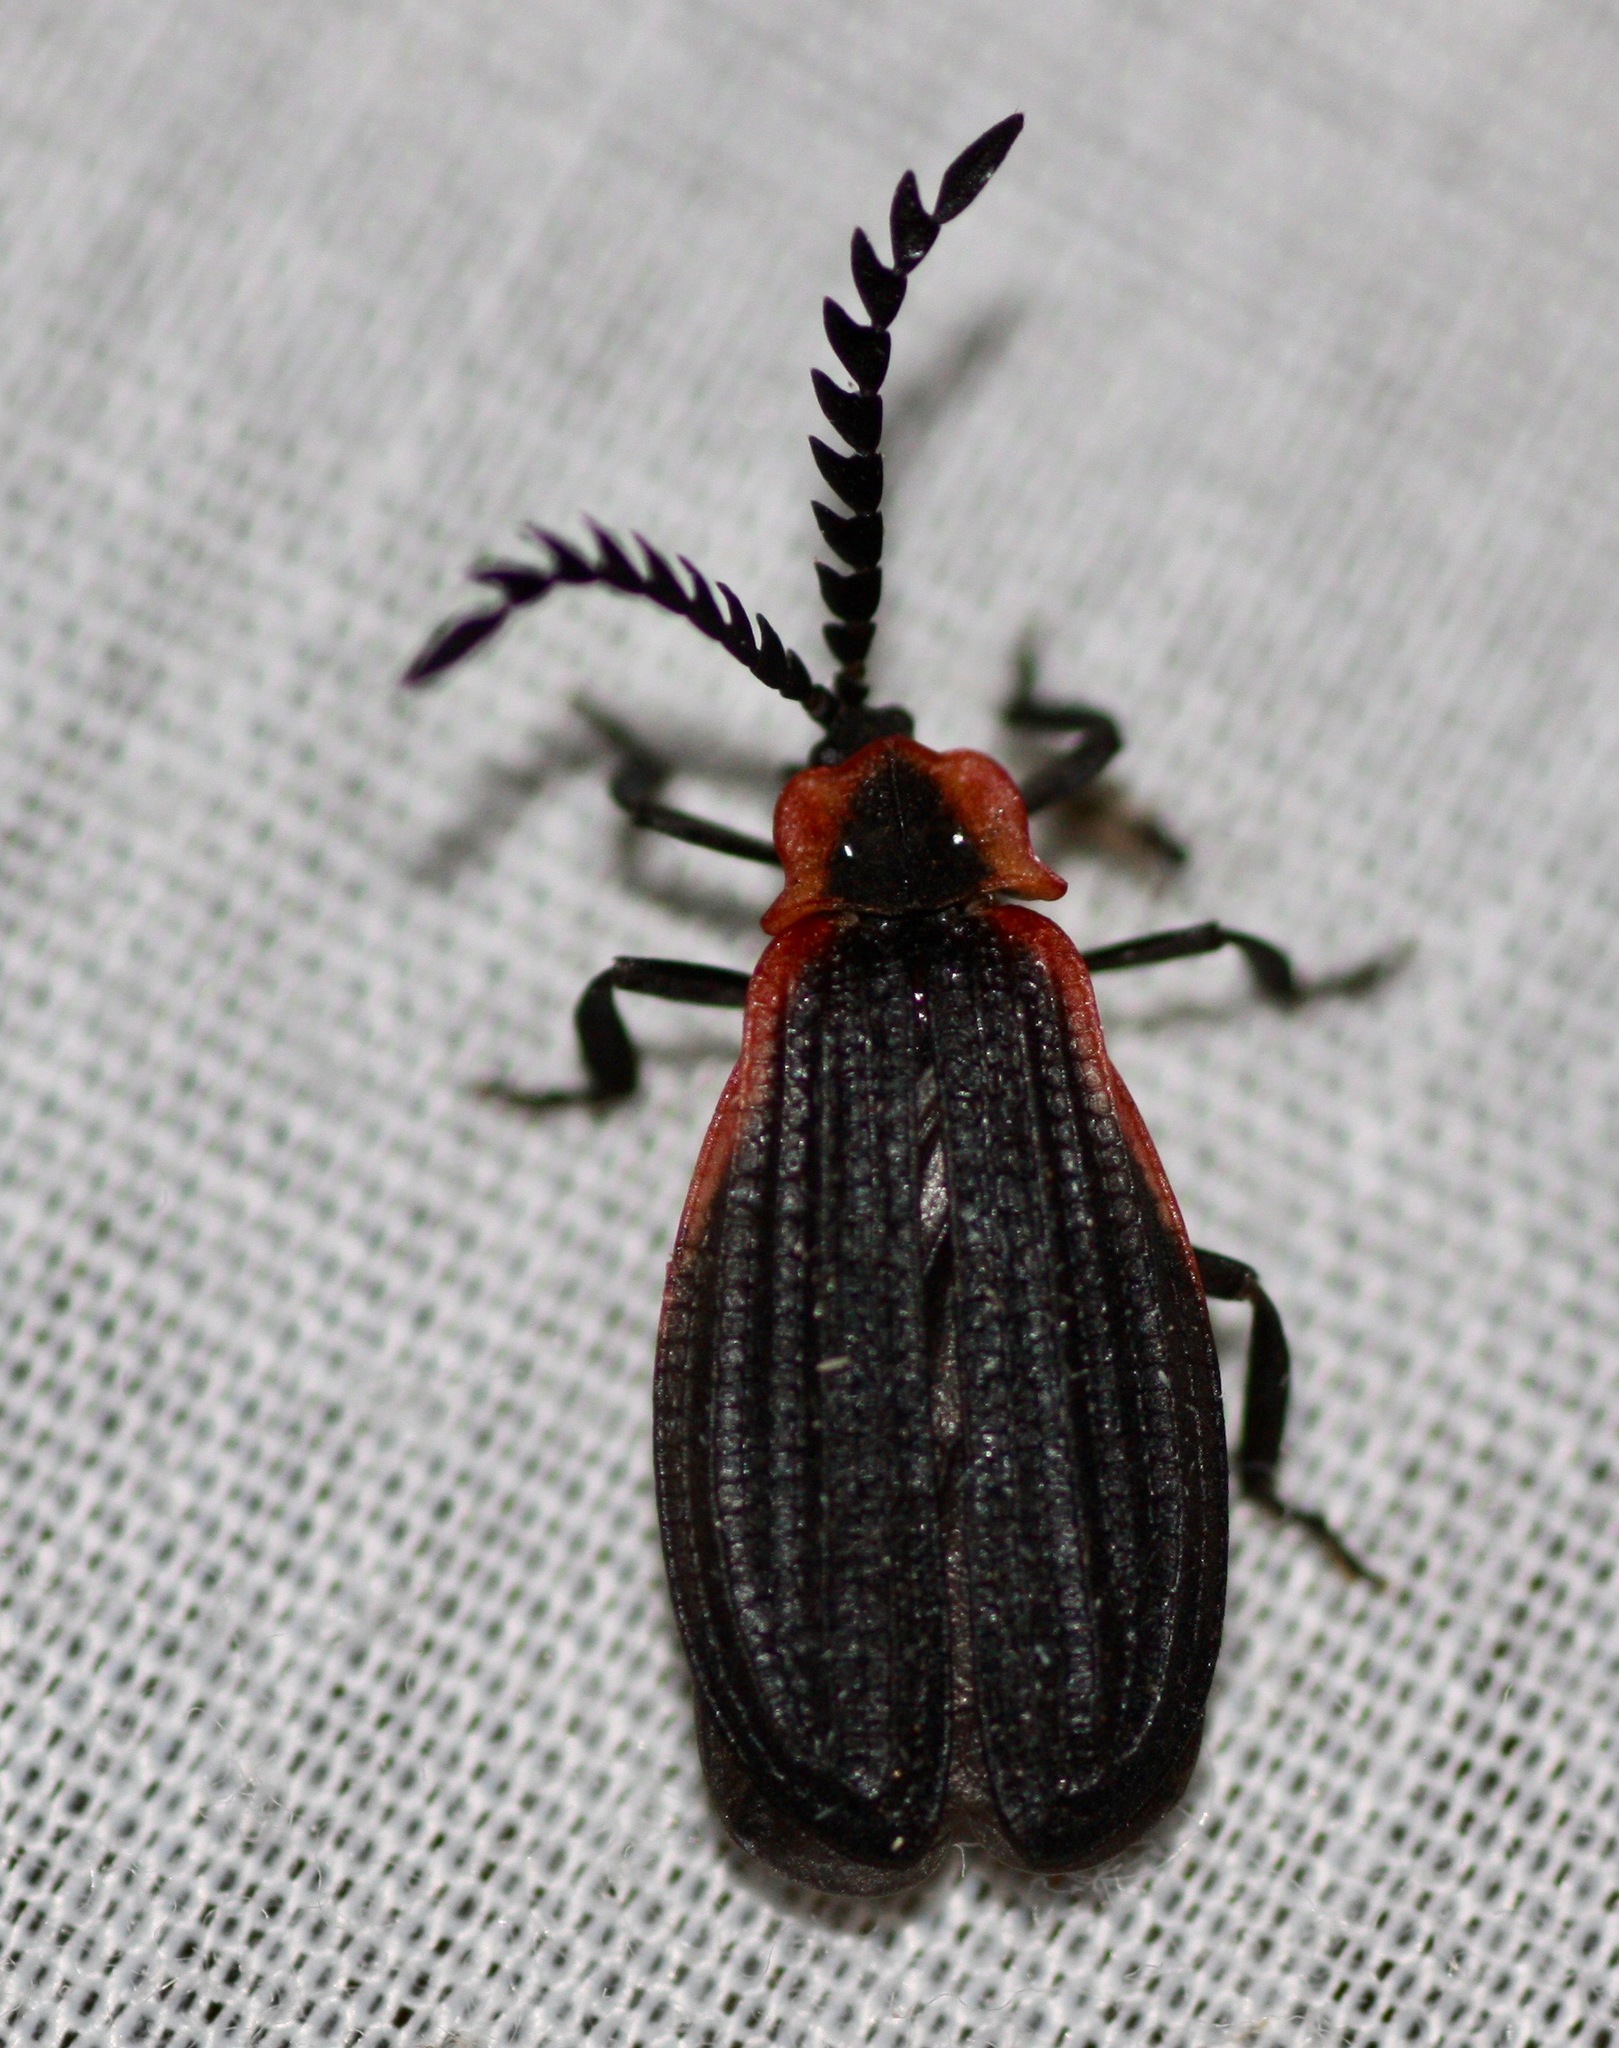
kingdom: Animalia
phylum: Arthropoda
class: Insecta
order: Coleoptera
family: Lycidae
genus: Caenia
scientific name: Caenia amplicornis
